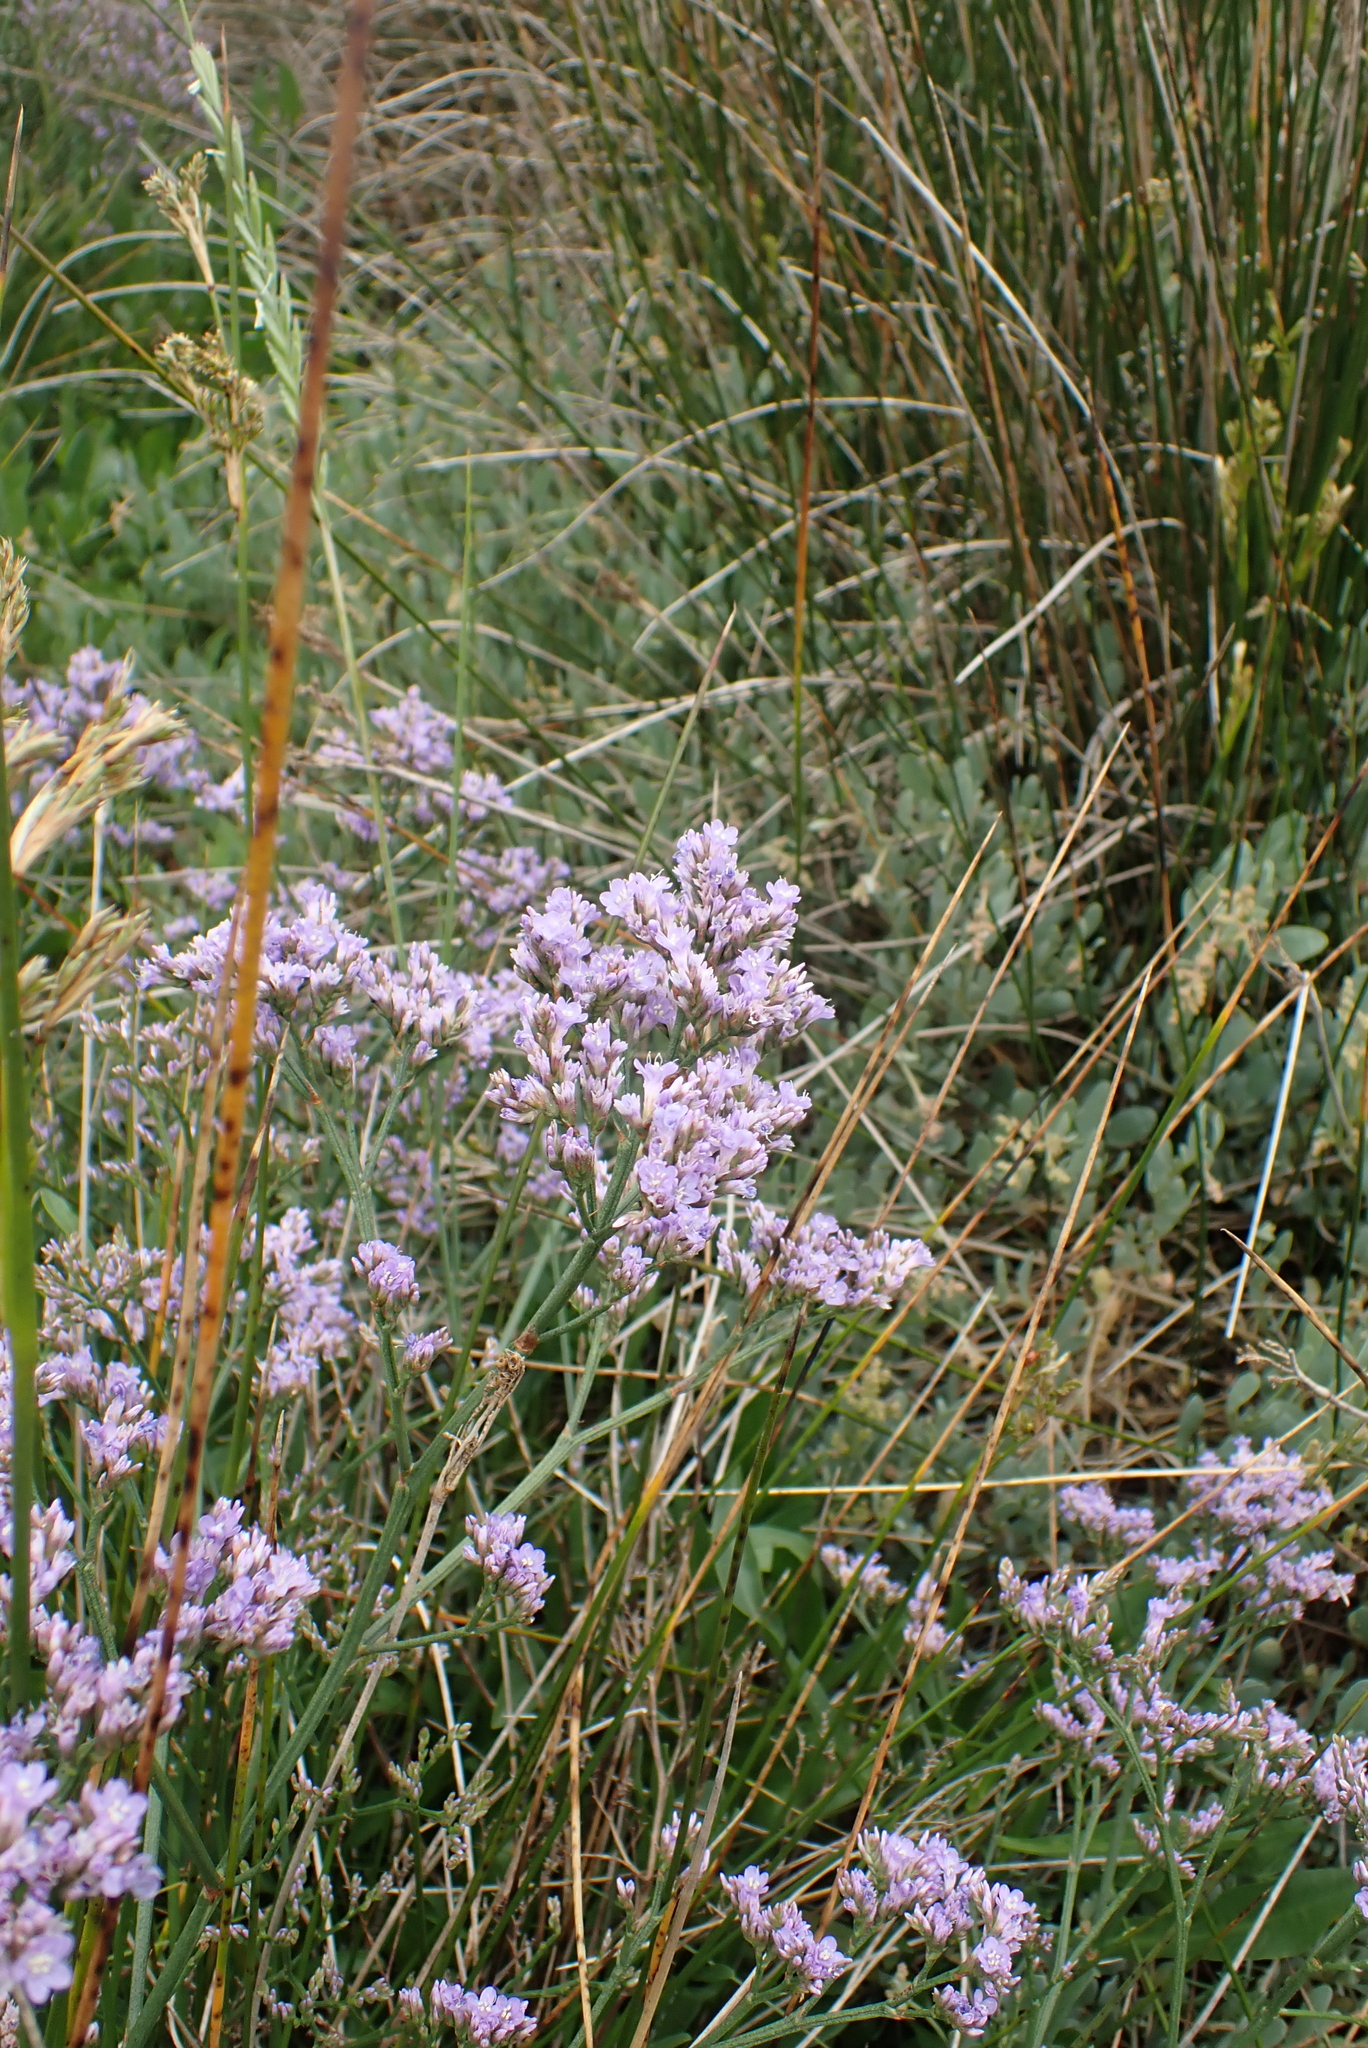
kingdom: Plantae
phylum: Tracheophyta
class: Magnoliopsida
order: Caryophyllales
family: Plumbaginaceae
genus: Limonium
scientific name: Limonium vulgare
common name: Common sea-lavender
